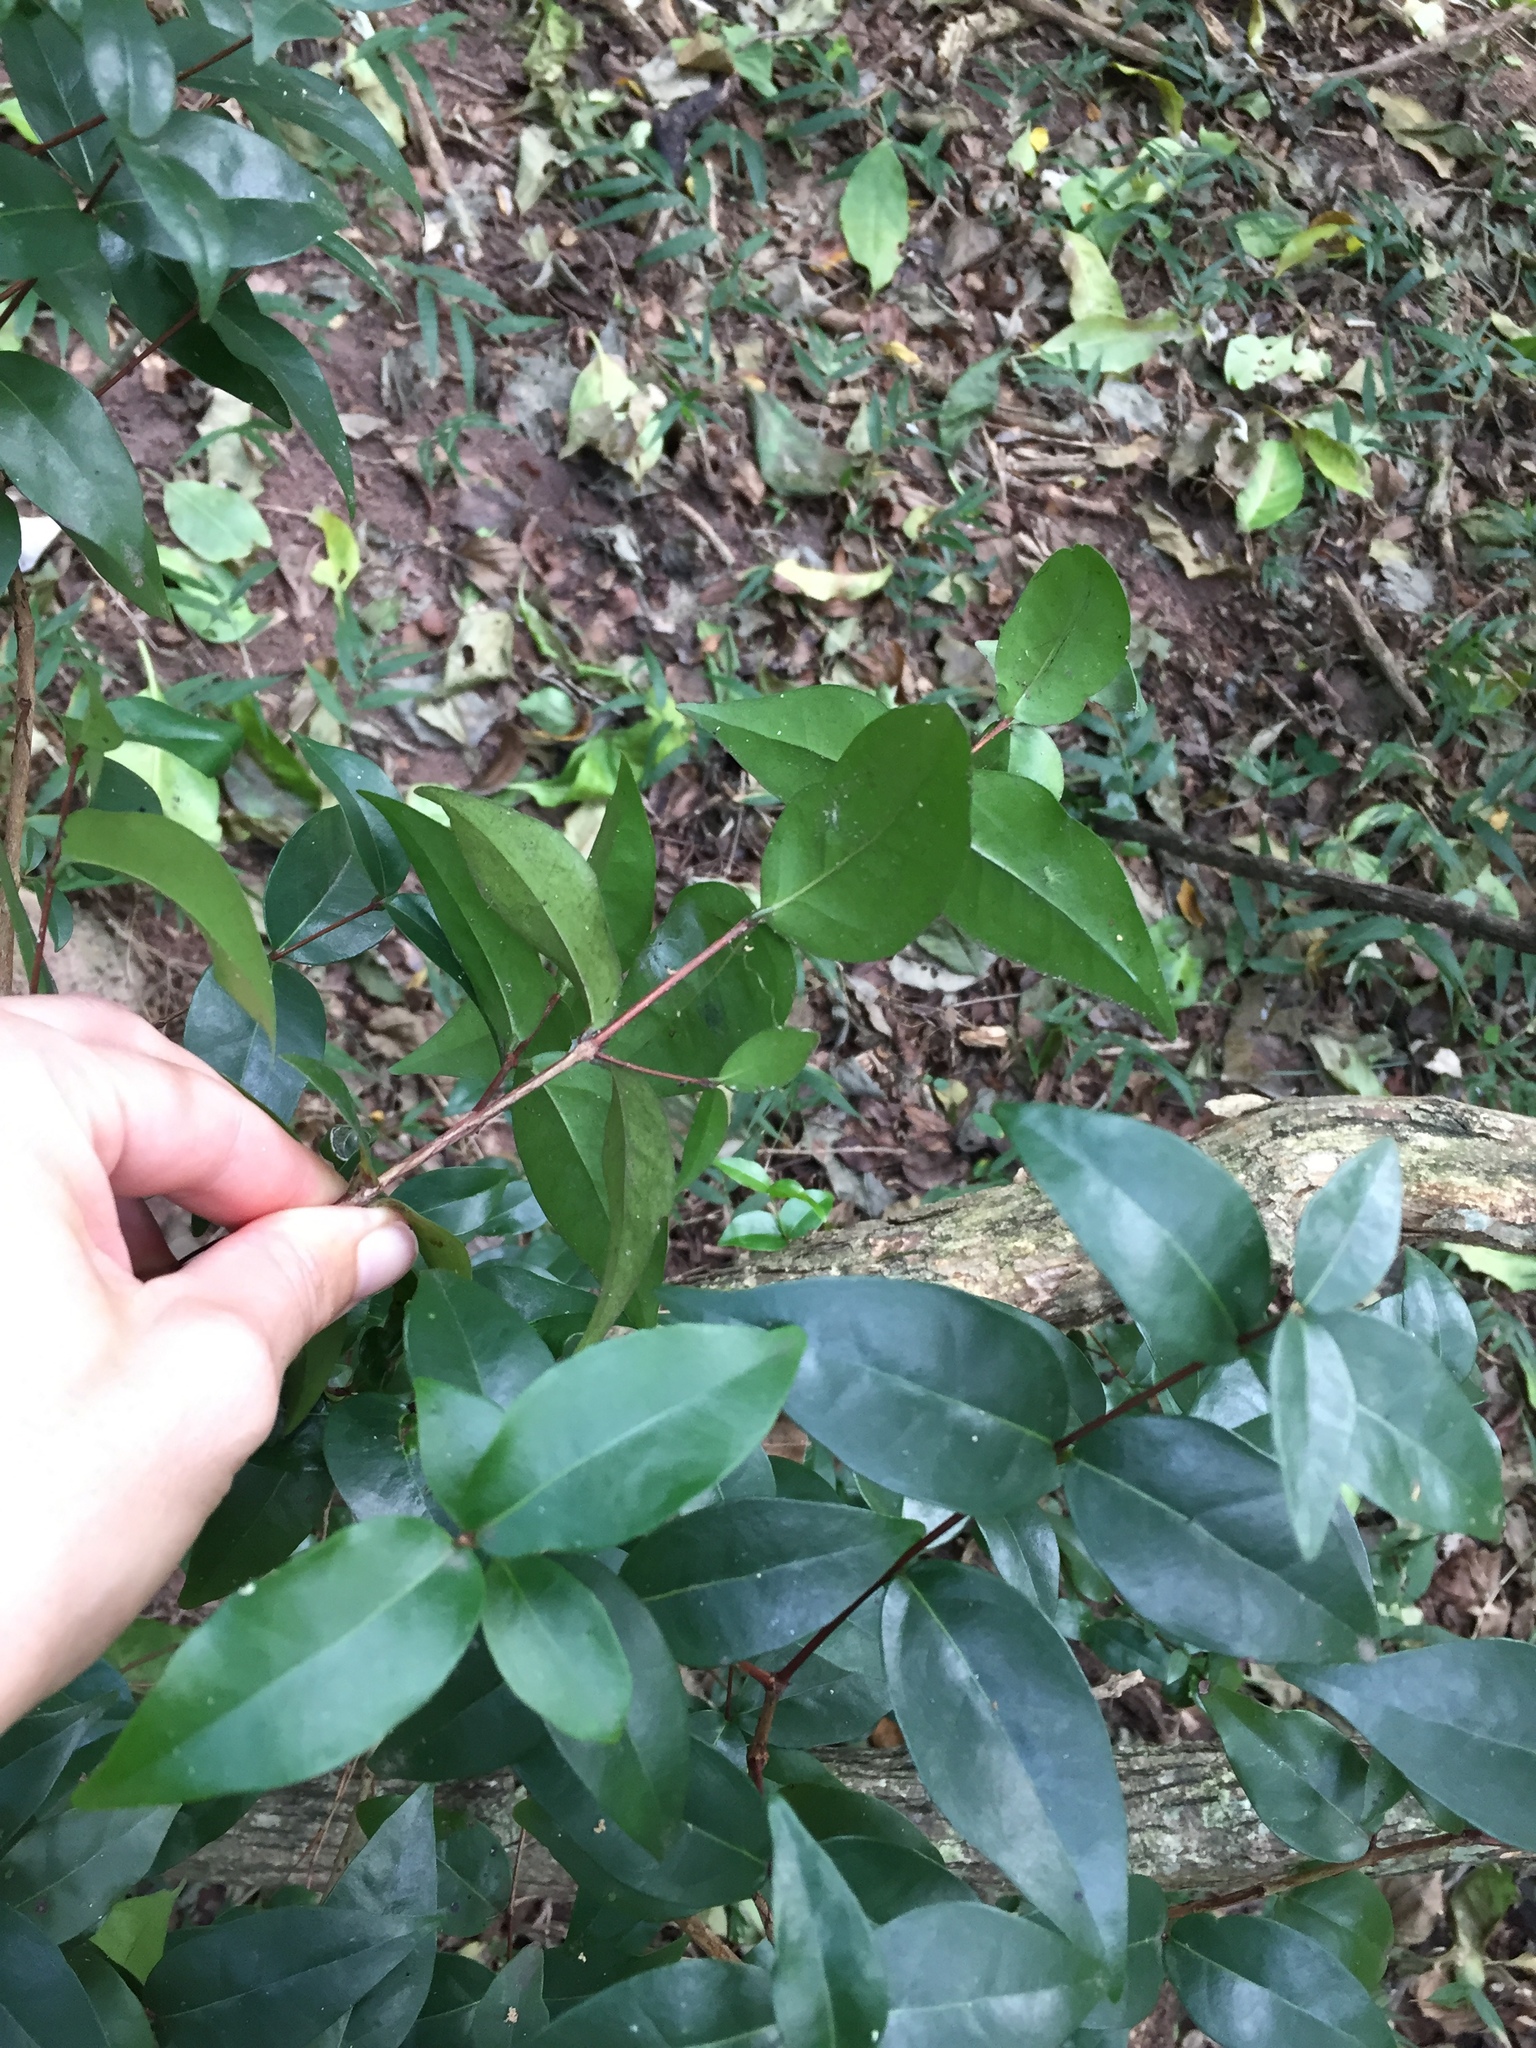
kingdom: Plantae
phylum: Tracheophyta
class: Magnoliopsida
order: Myrtales
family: Myrtaceae
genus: Eugenia
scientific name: Eugenia uniflora
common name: Surinam cherry
